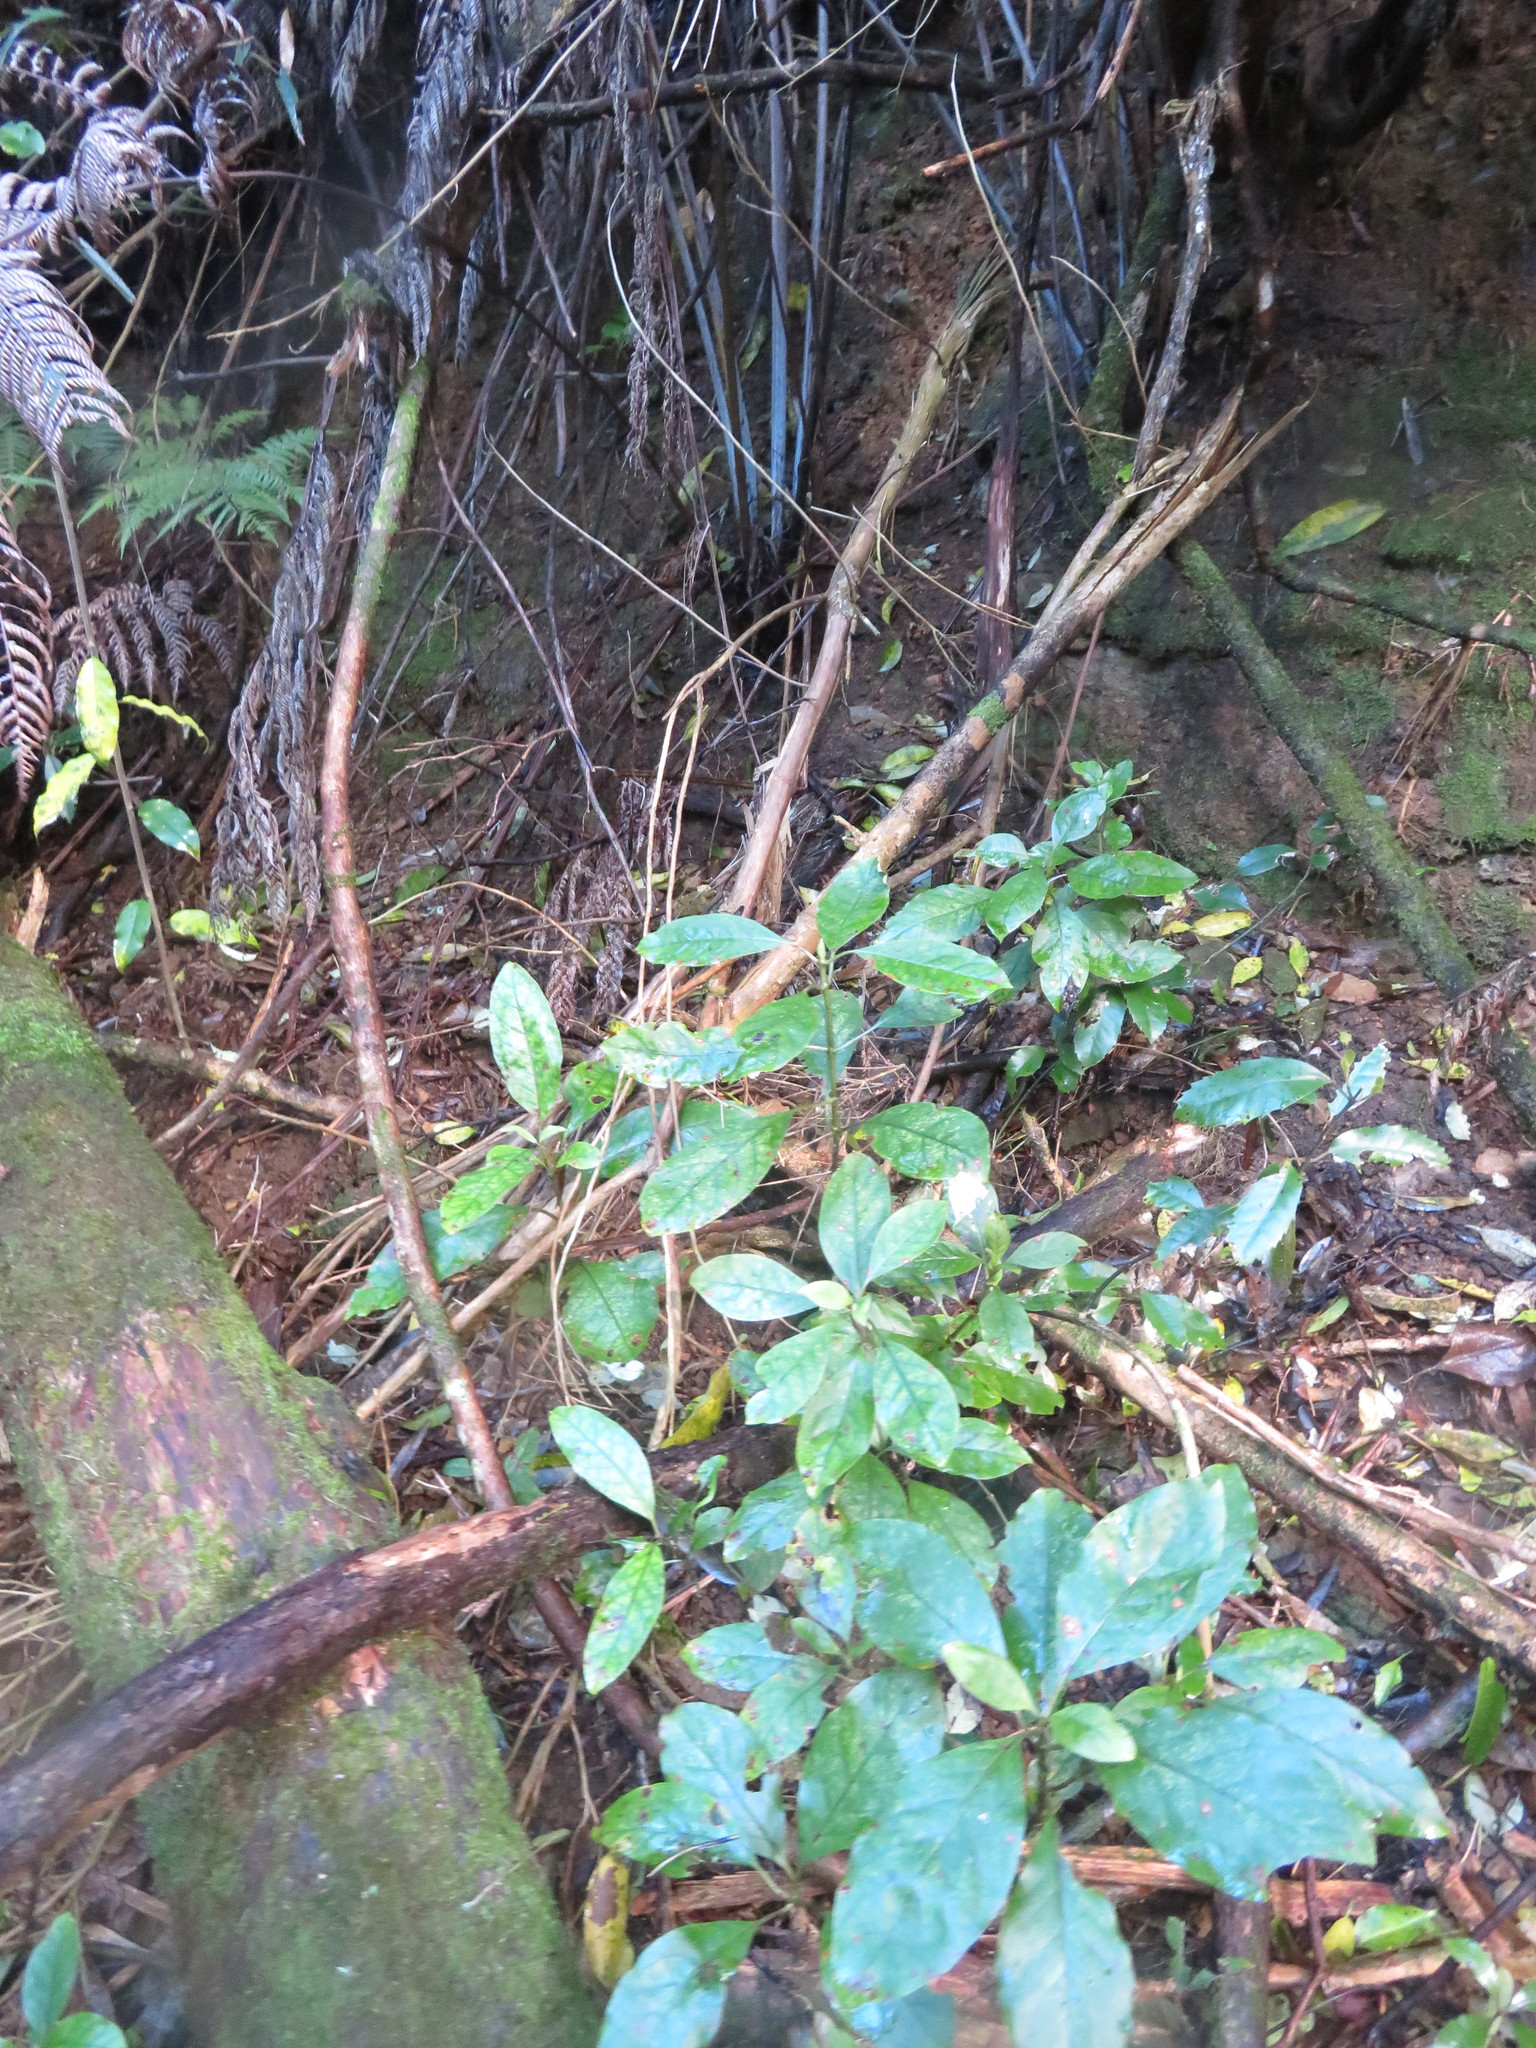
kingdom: Plantae
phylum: Tracheophyta
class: Magnoliopsida
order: Gentianales
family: Rubiaceae
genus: Coprosma
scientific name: Coprosma autumnalis
